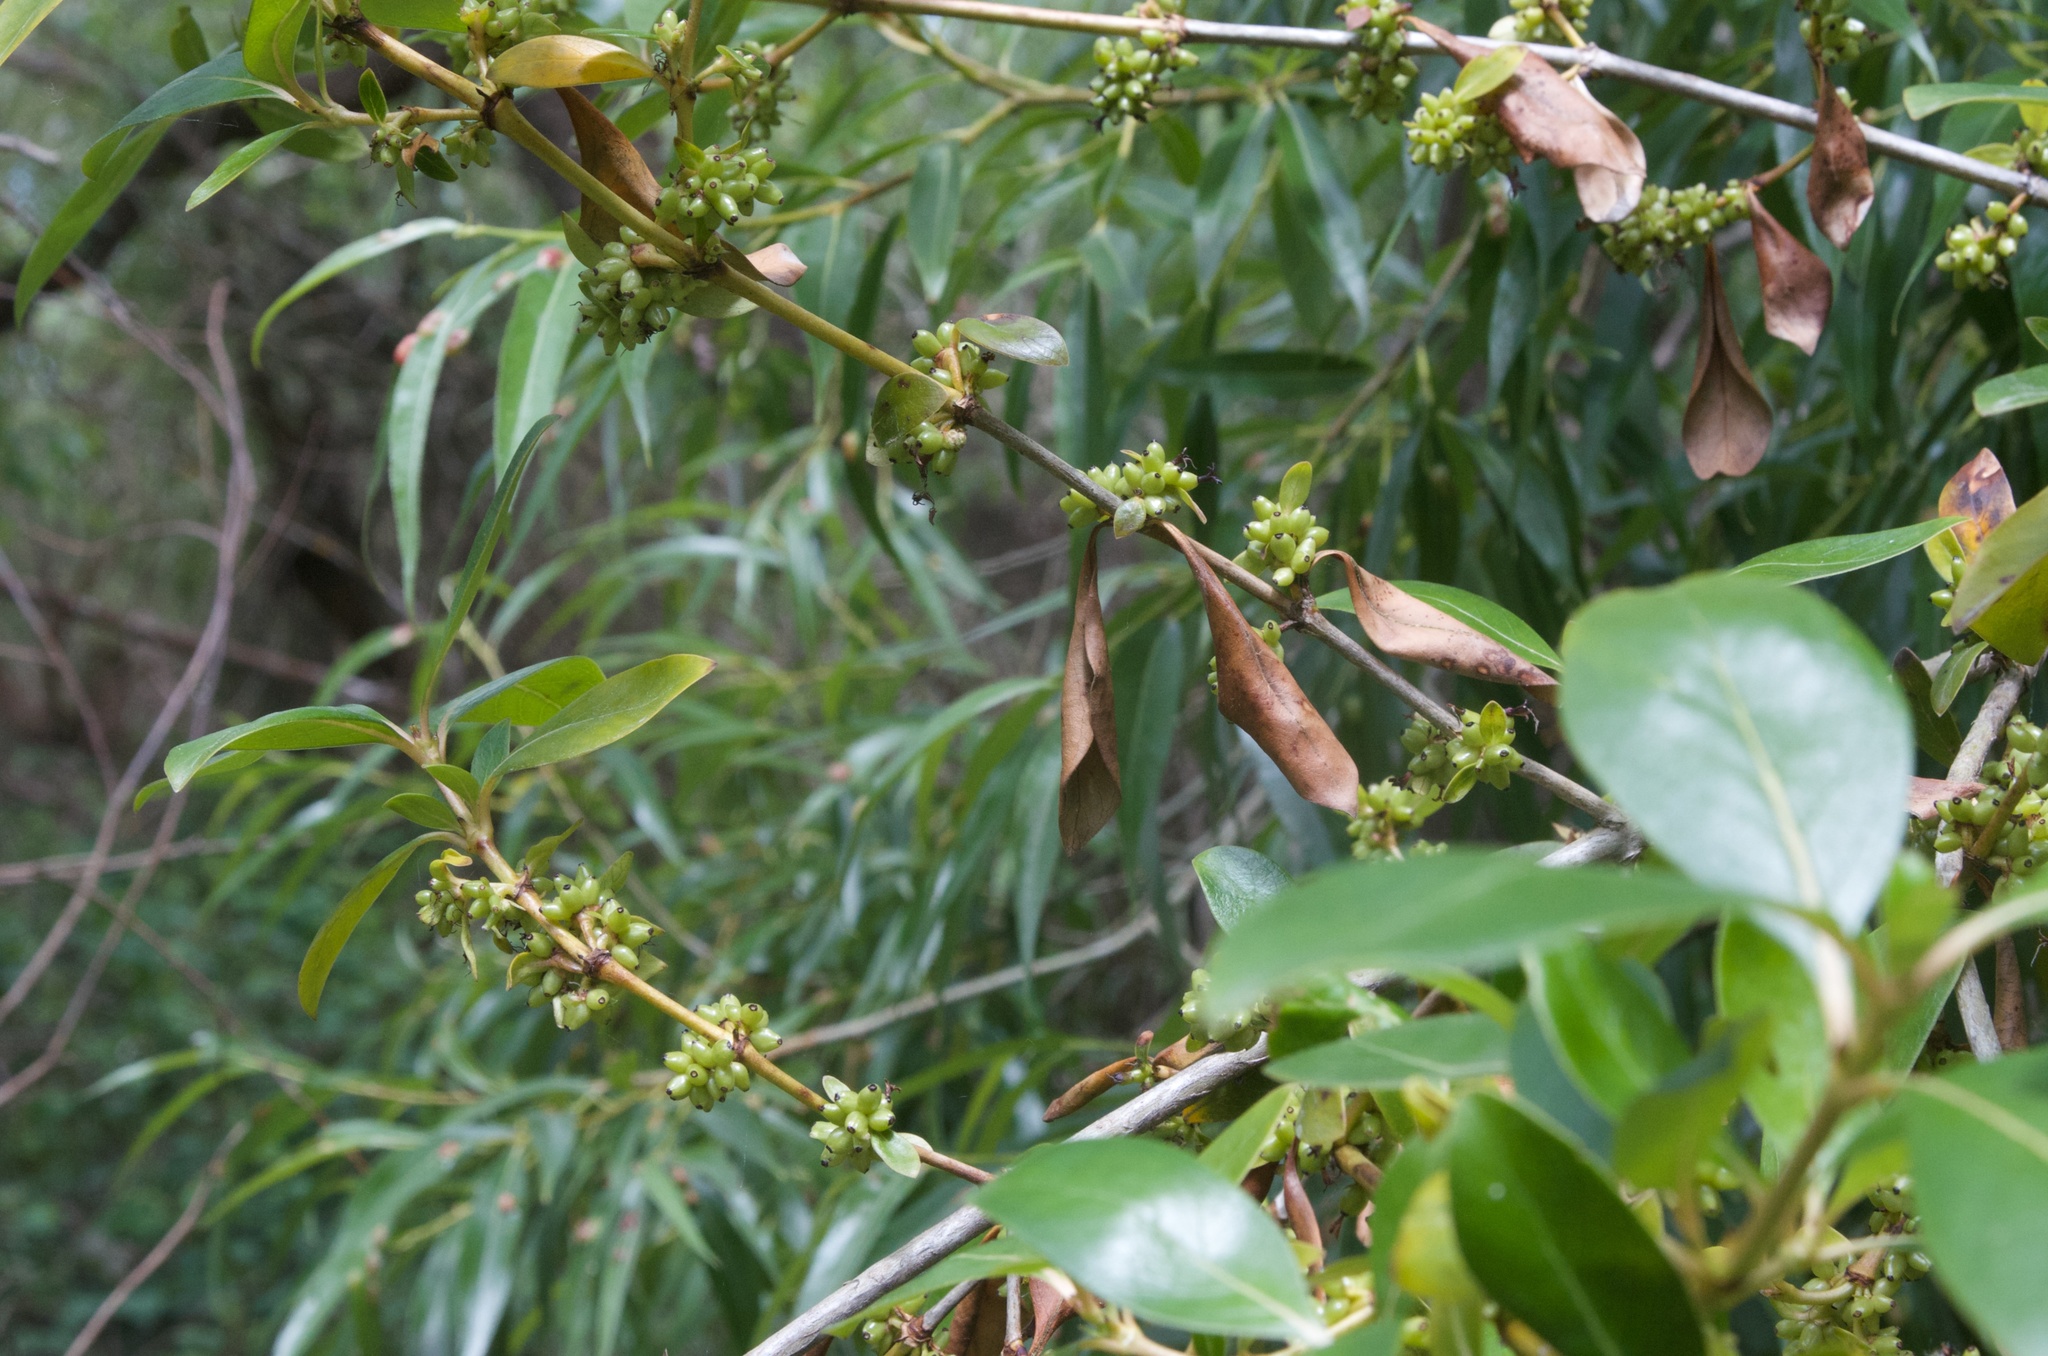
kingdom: Plantae
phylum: Tracheophyta
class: Magnoliopsida
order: Gentianales
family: Rubiaceae
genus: Coprosma
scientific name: Coprosma robusta
